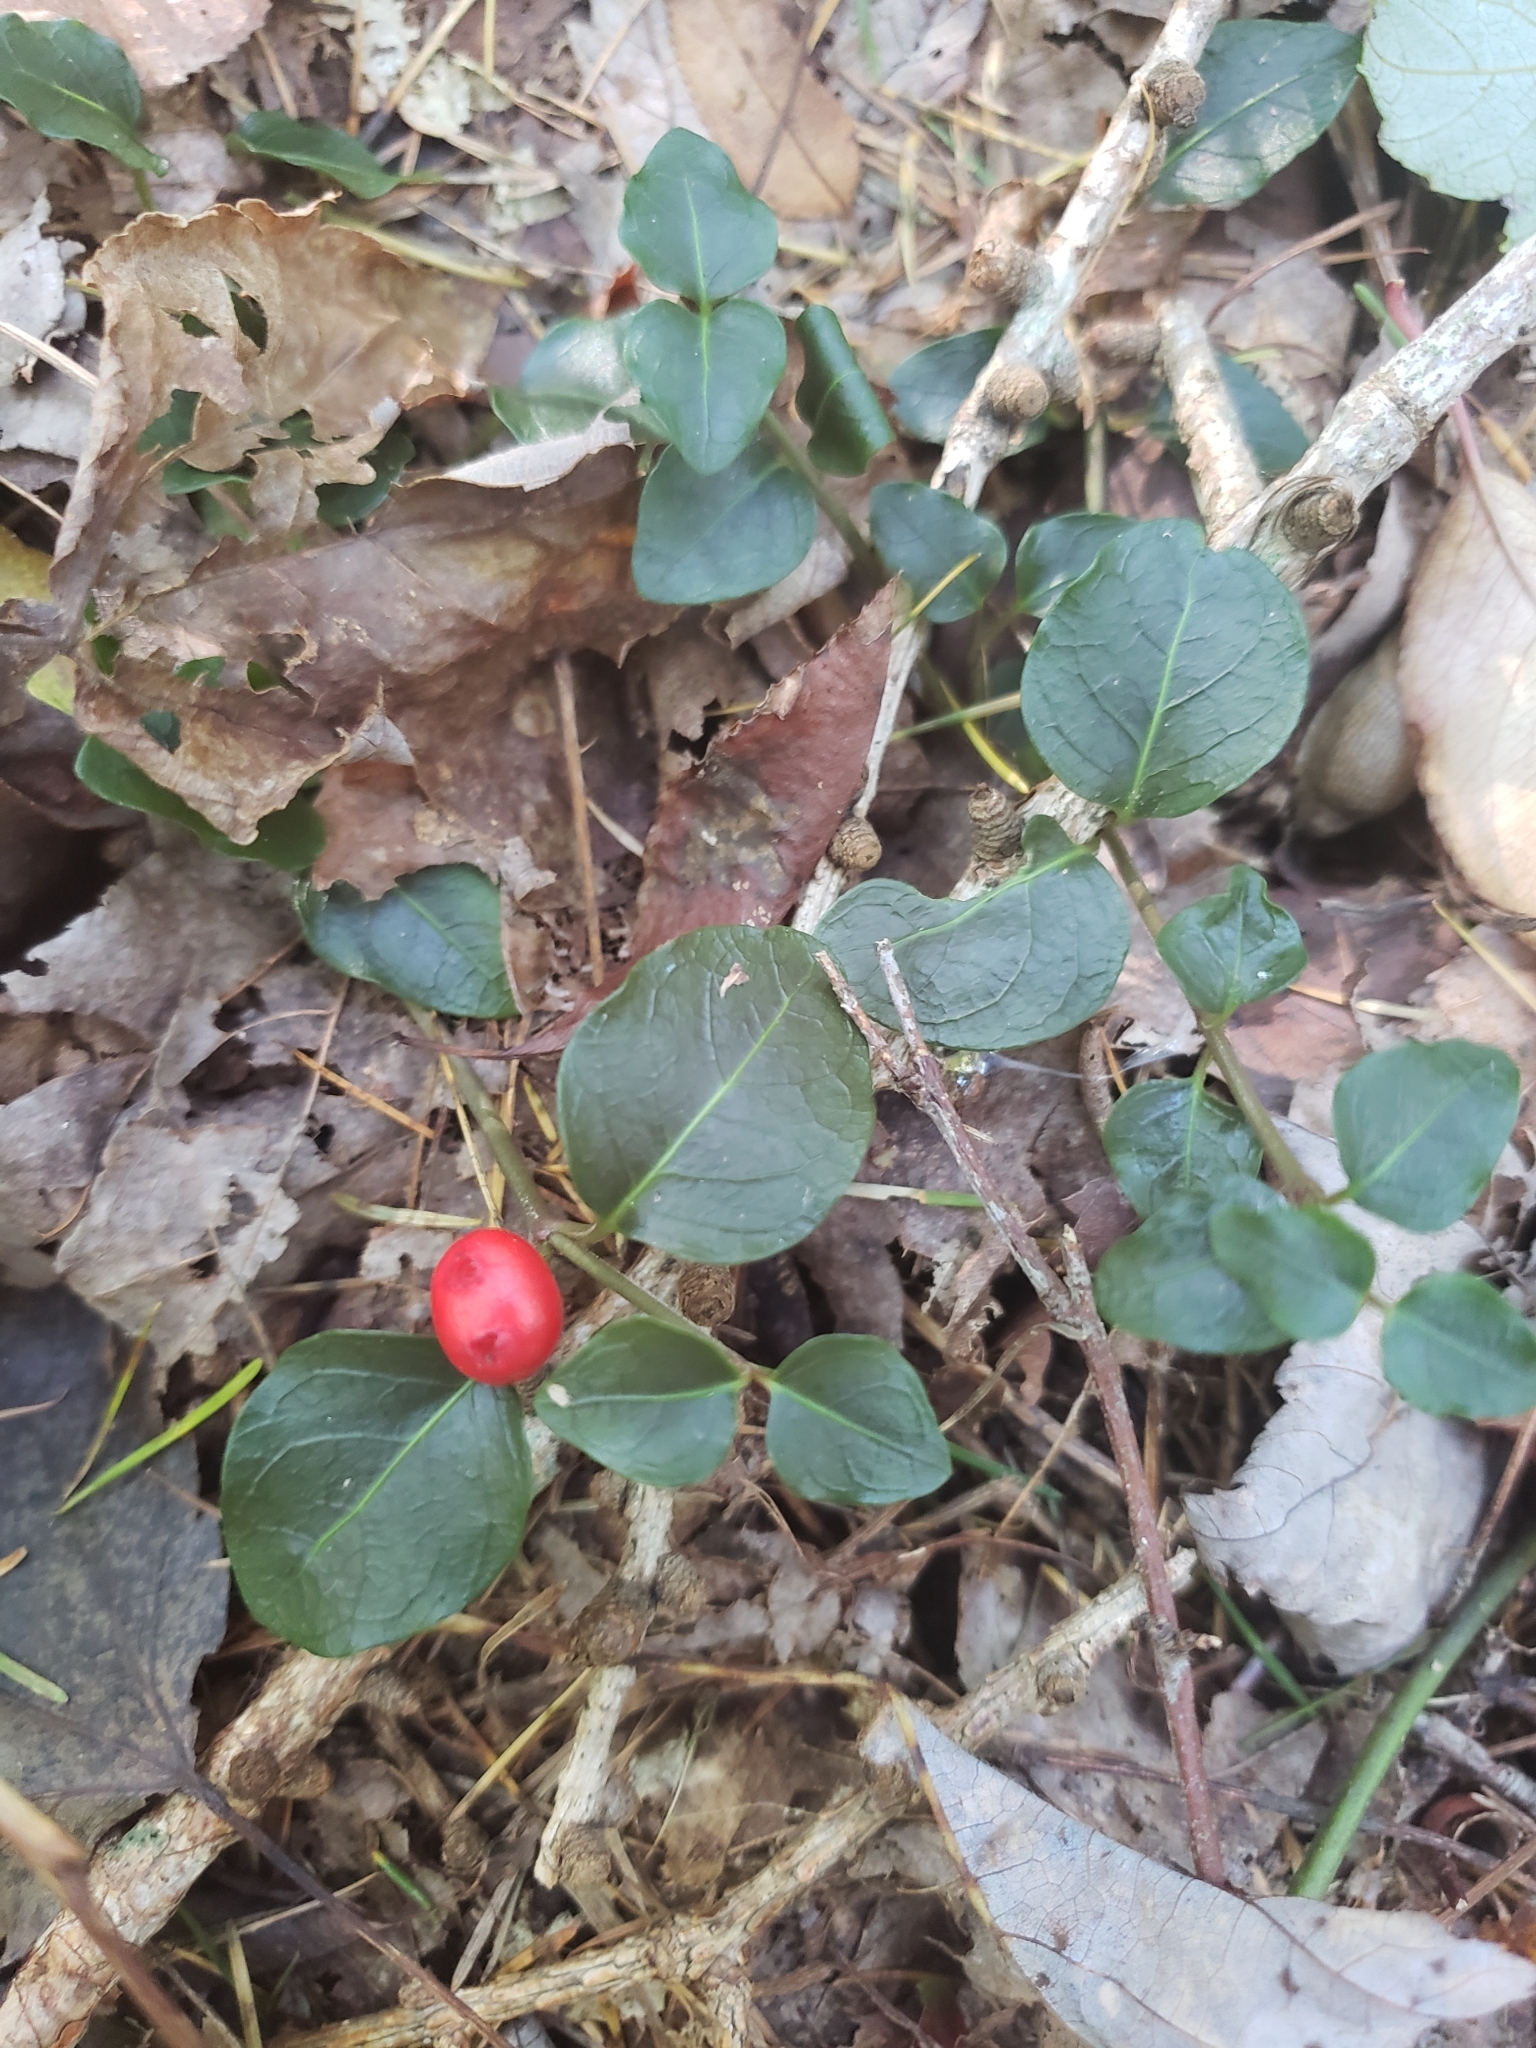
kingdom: Plantae
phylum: Tracheophyta
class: Magnoliopsida
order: Gentianales
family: Rubiaceae
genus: Mitchella
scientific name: Mitchella repens
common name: Partridge-berry
